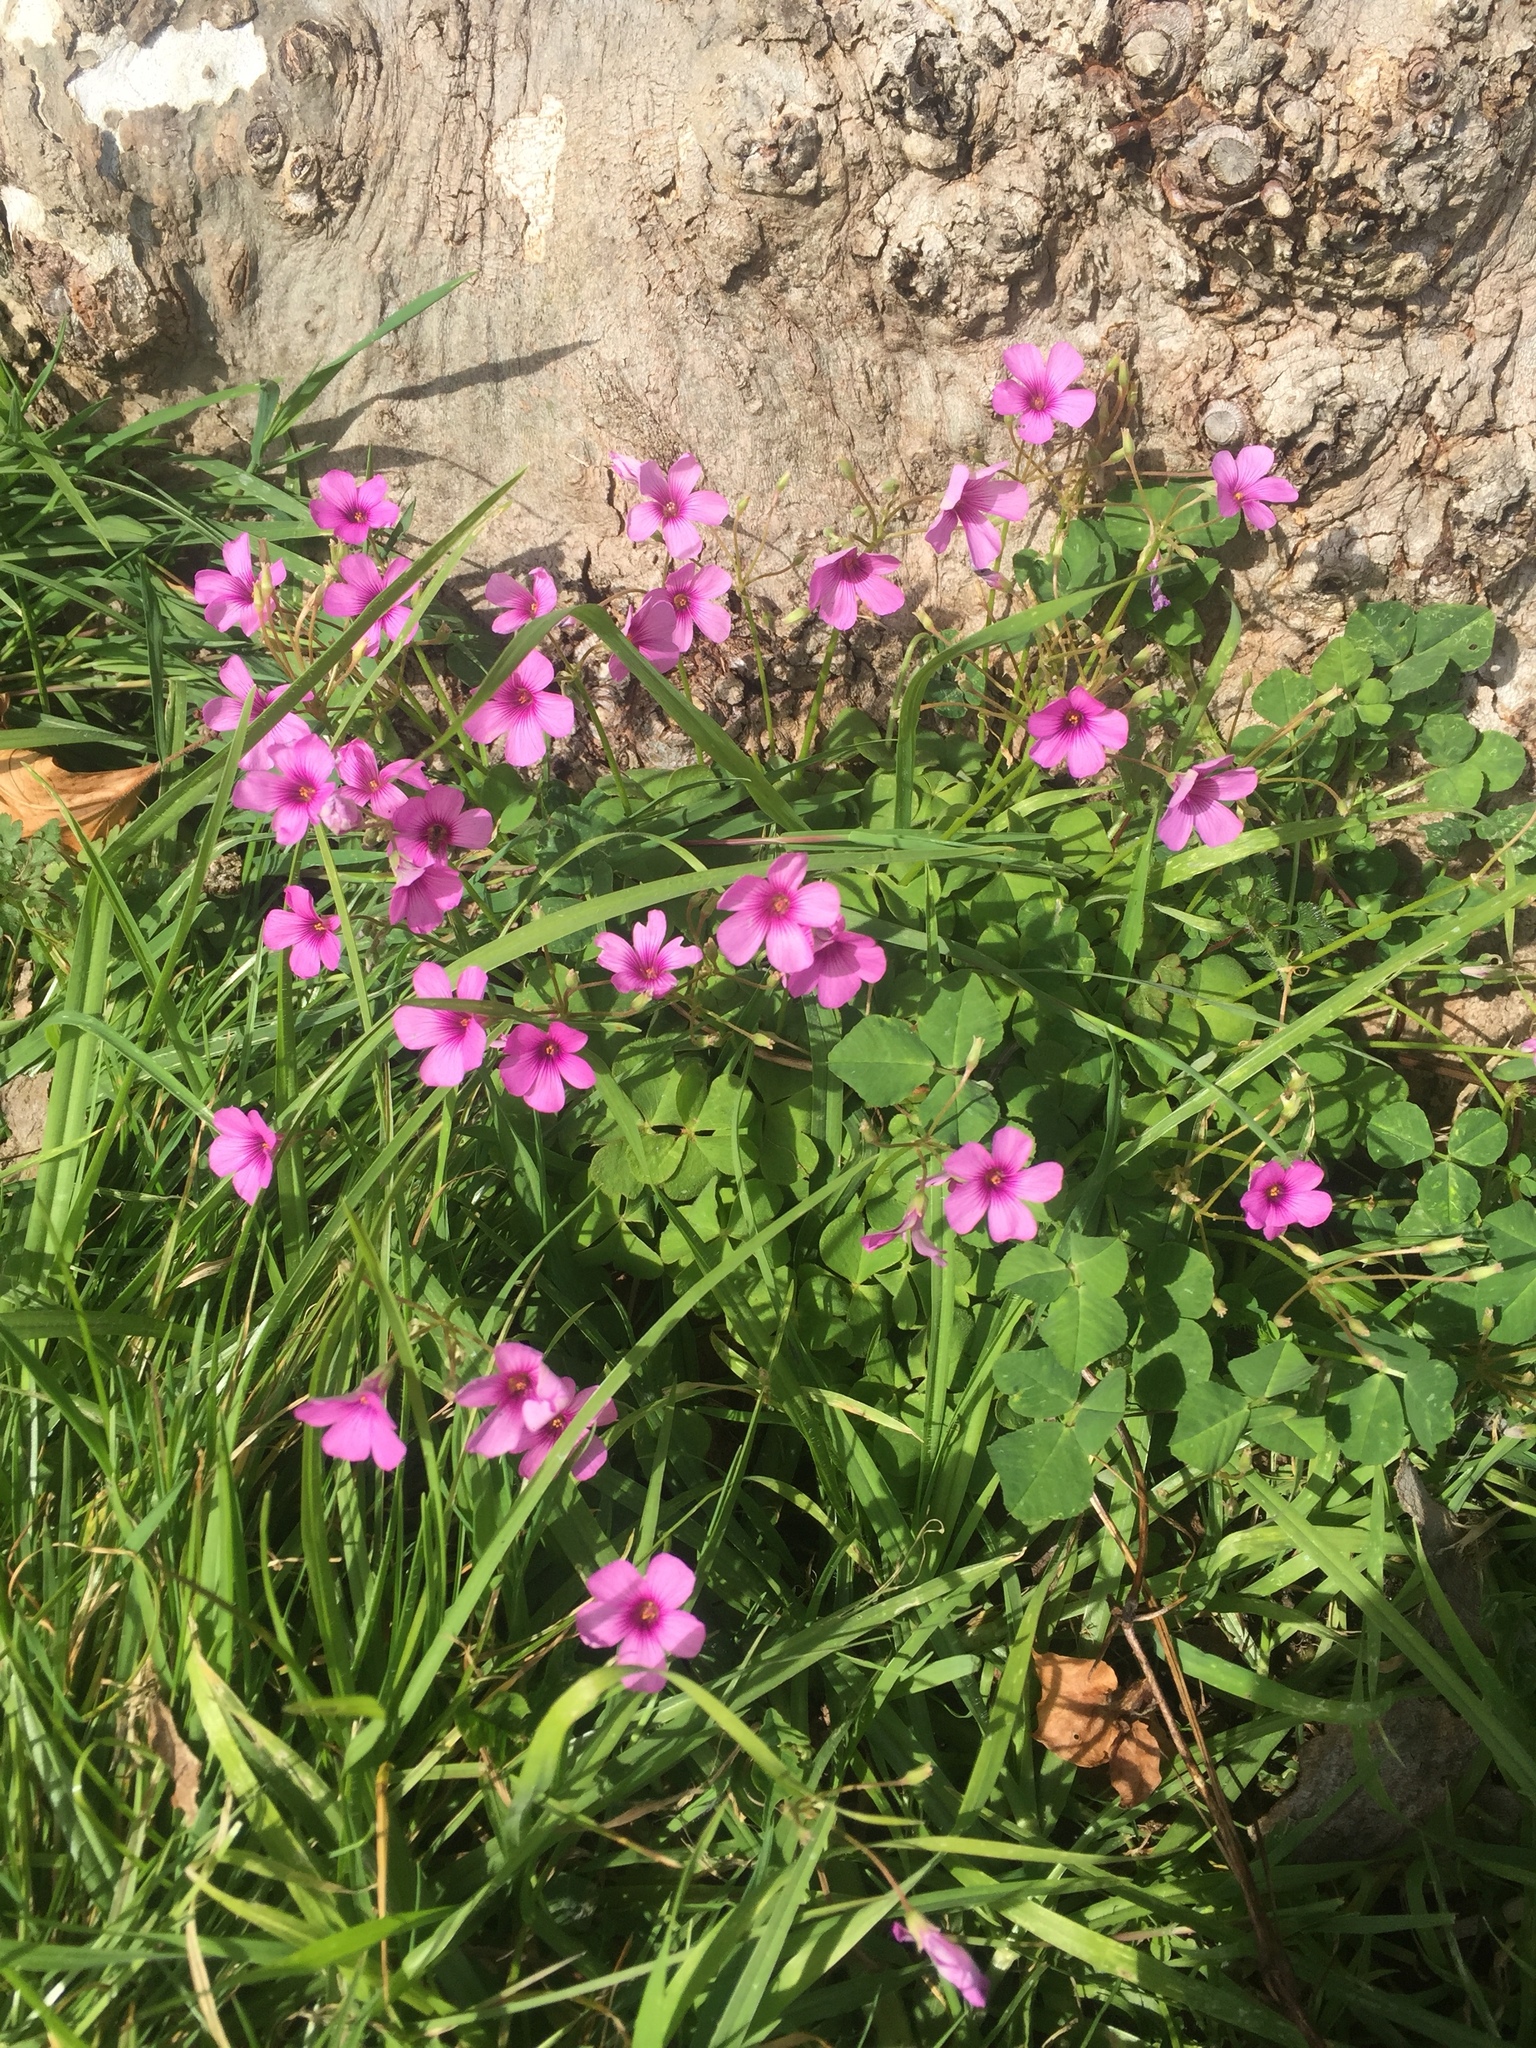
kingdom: Plantae
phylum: Tracheophyta
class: Magnoliopsida
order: Oxalidales
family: Oxalidaceae
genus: Oxalis
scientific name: Oxalis articulata
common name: Pink-sorrel
